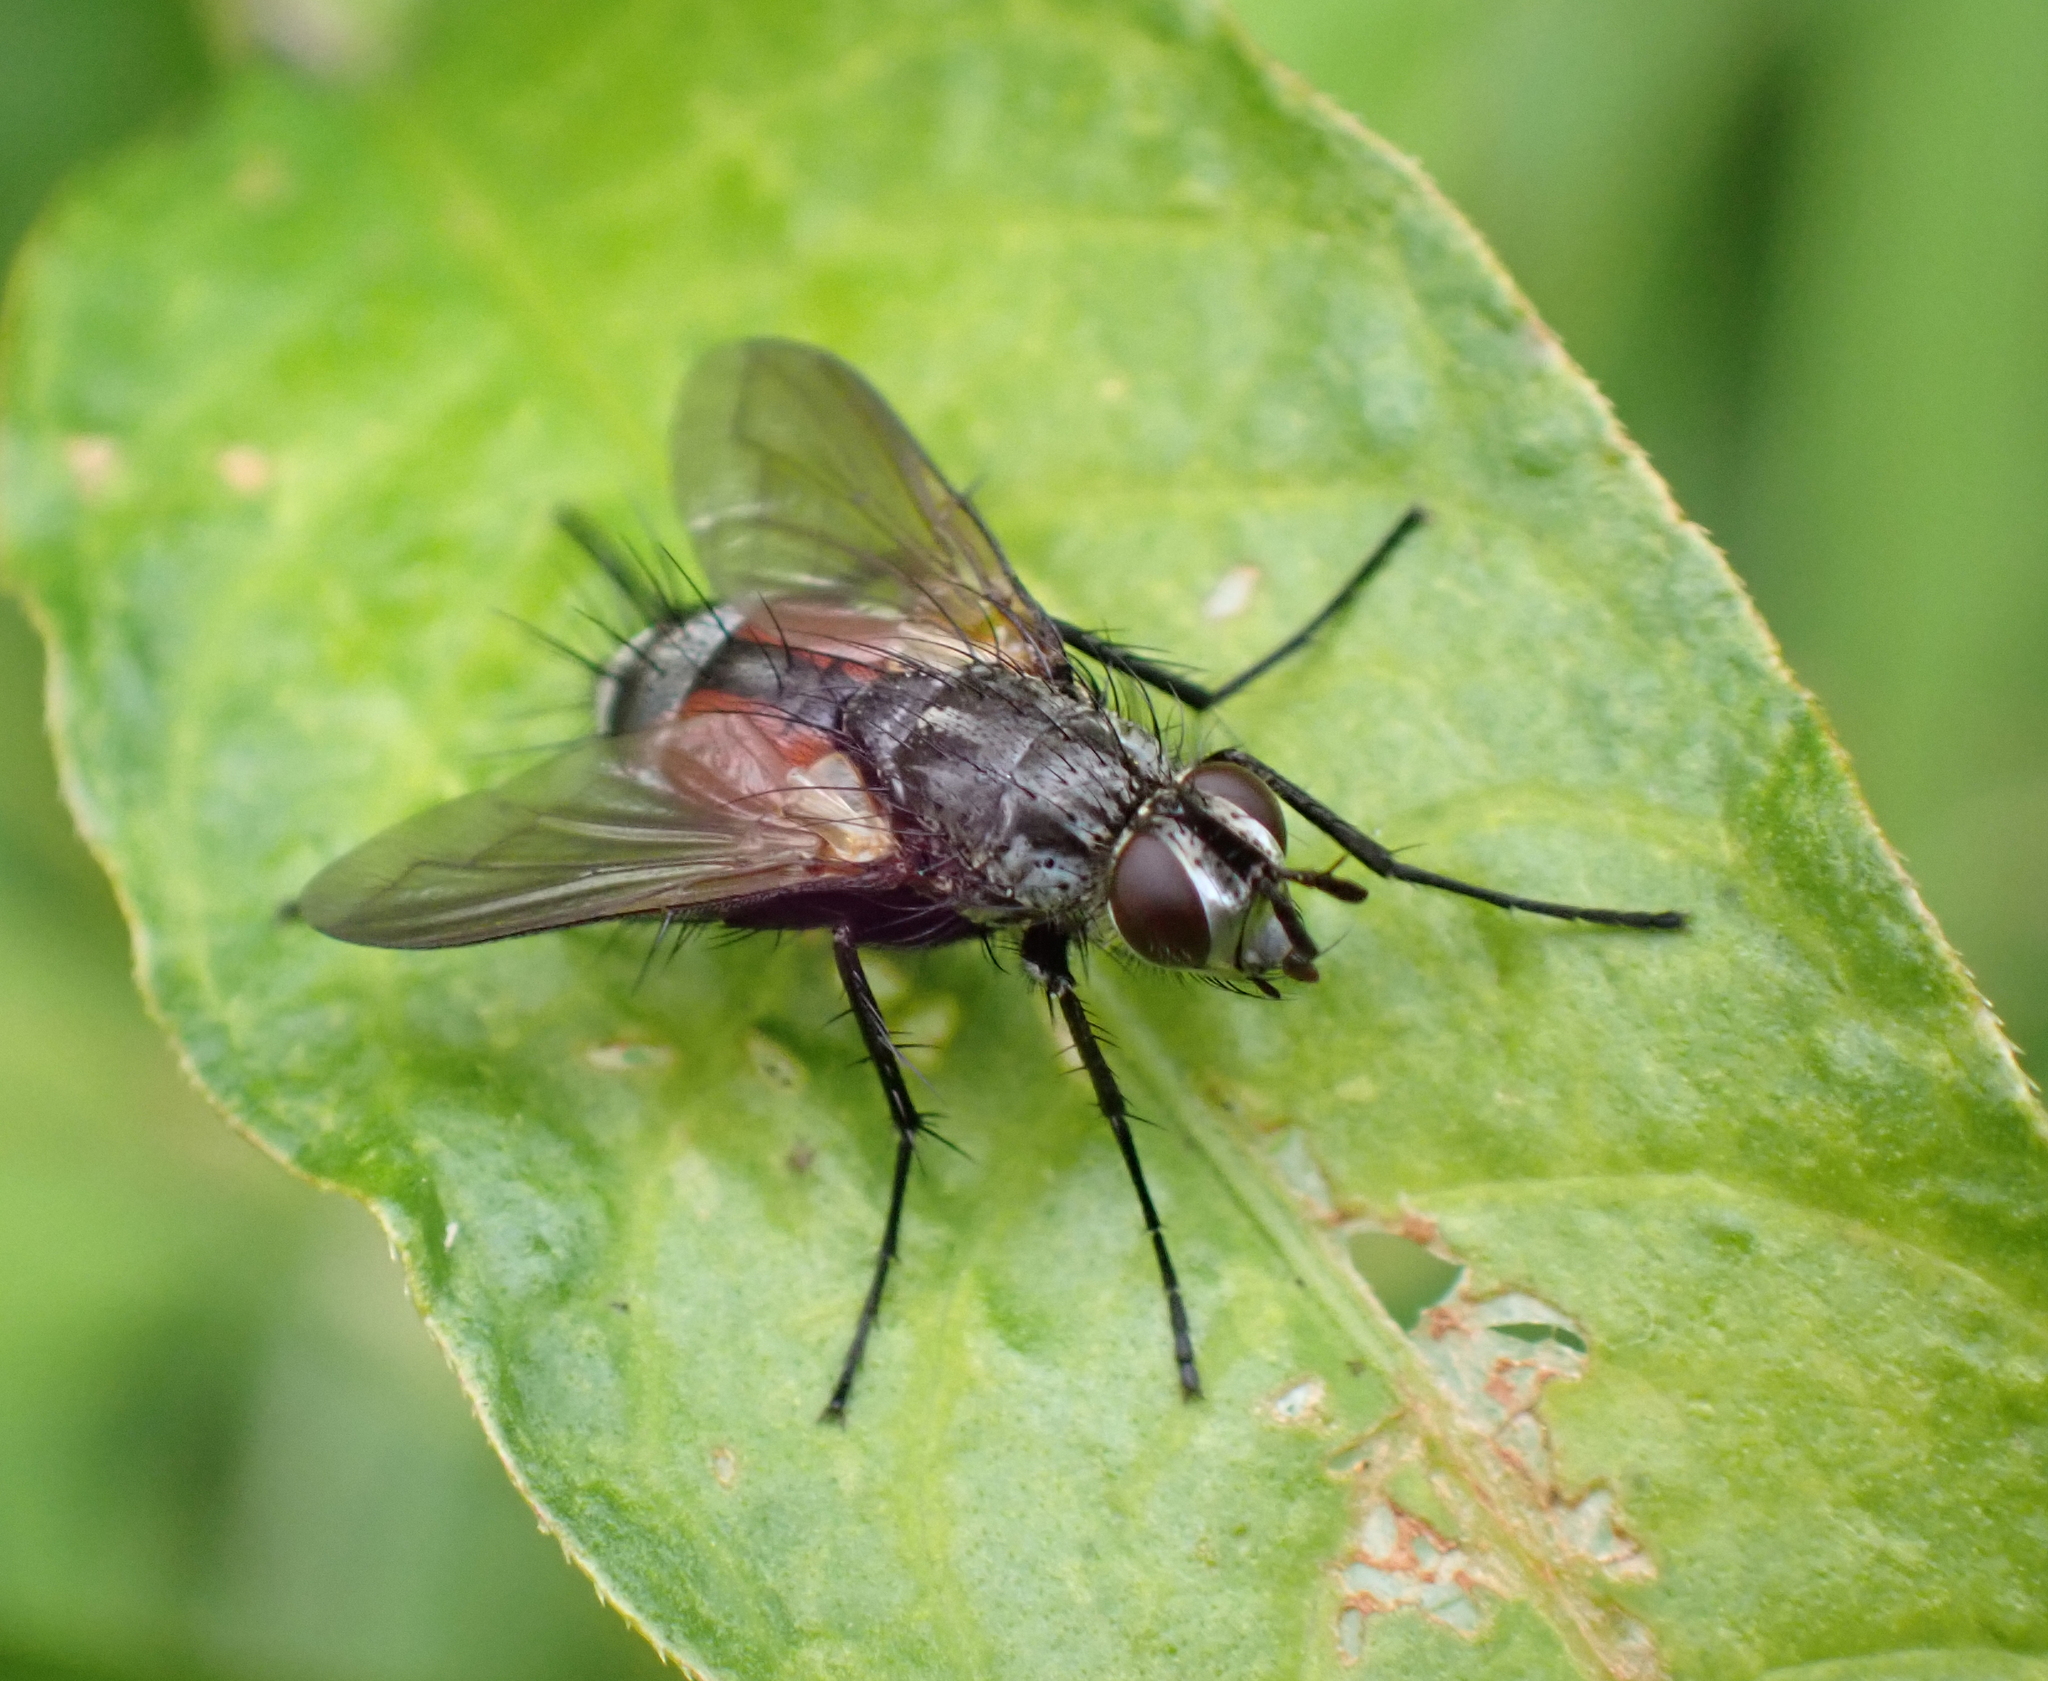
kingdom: Animalia
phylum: Arthropoda
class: Insecta
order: Diptera
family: Tachinidae
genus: Eriothrix
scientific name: Eriothrix rufomaculatus
